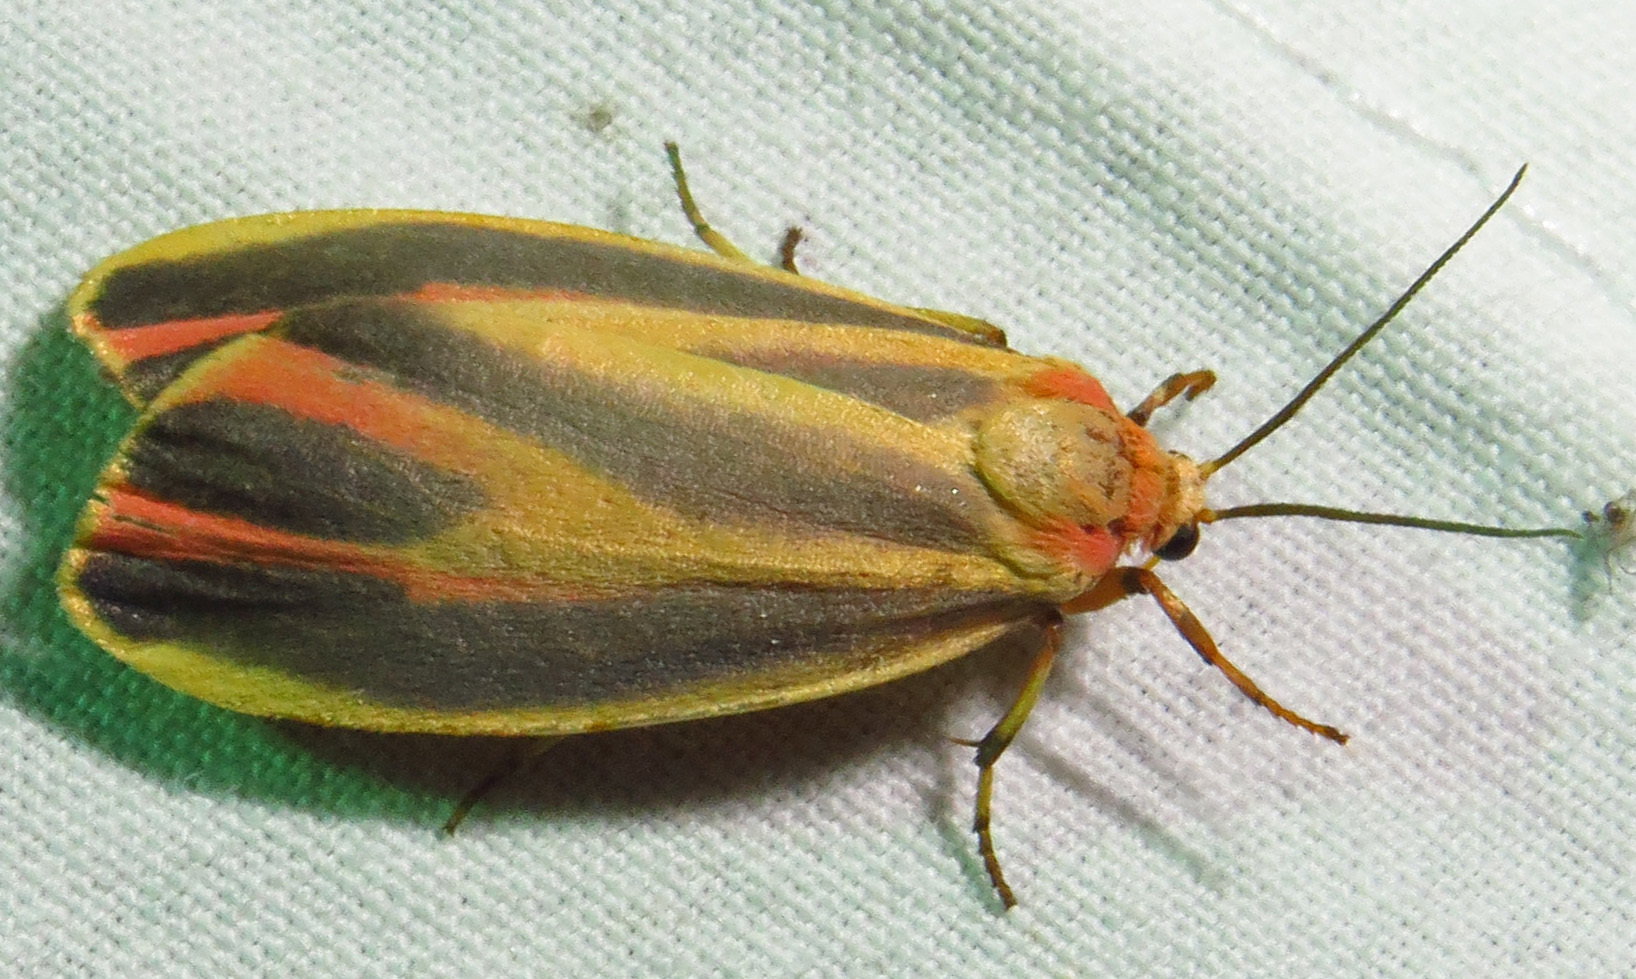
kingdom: Animalia
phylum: Arthropoda
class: Insecta
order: Lepidoptera
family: Erebidae
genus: Hypoprepia
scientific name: Hypoprepia fucosa
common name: Painted lichen moth
